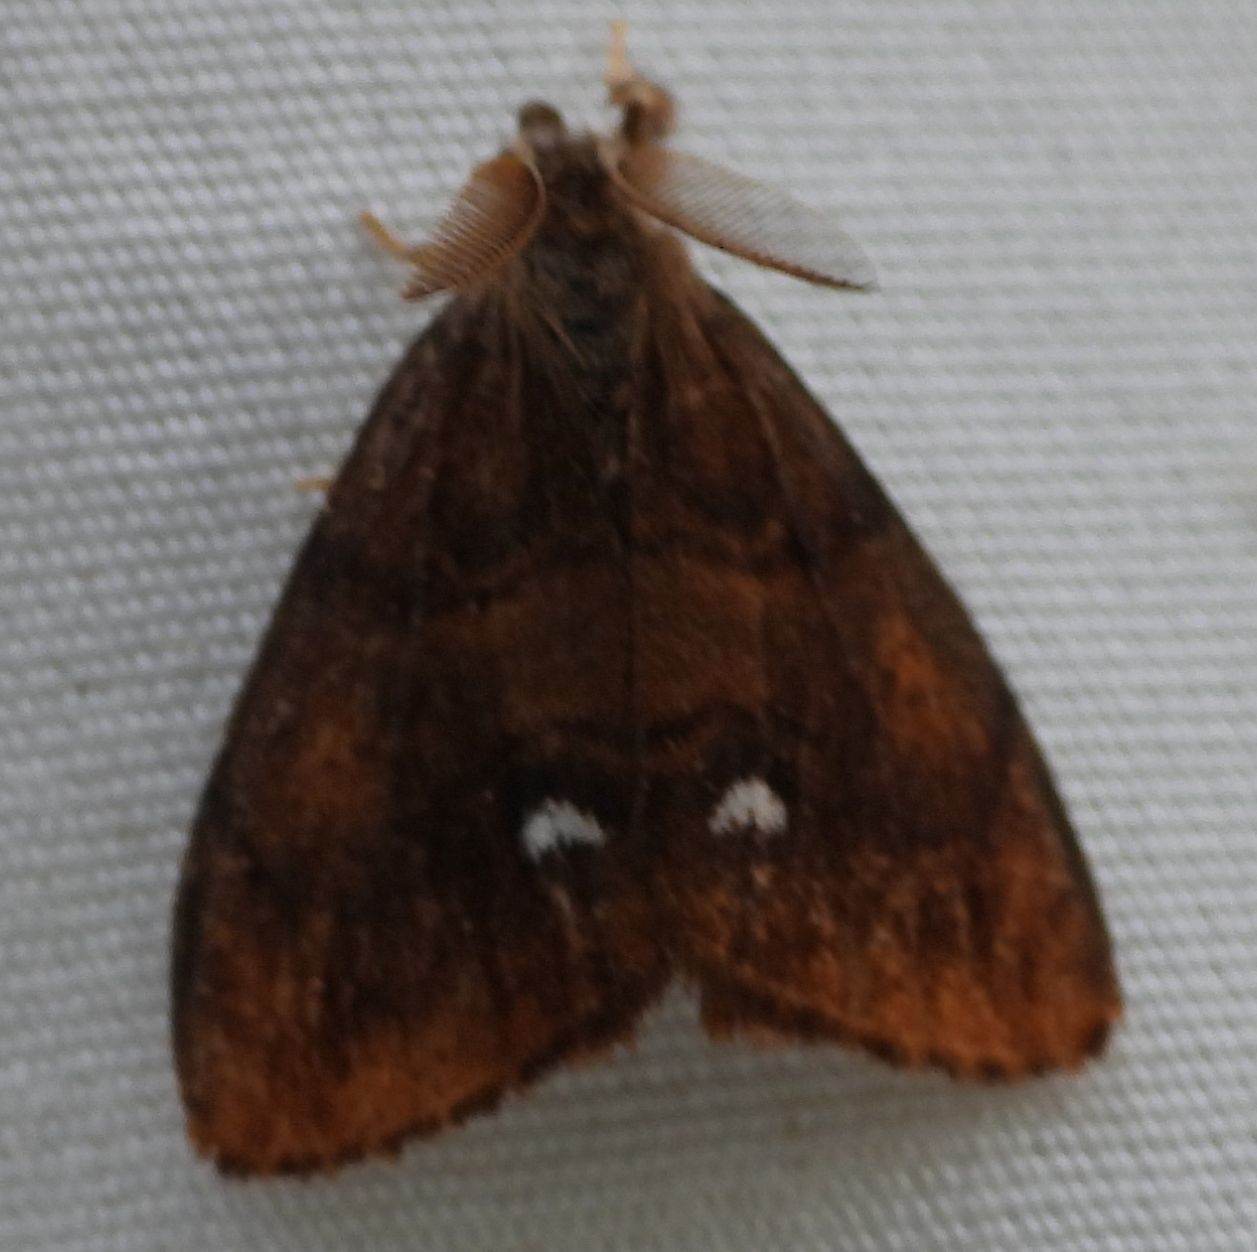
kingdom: Animalia
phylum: Arthropoda
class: Insecta
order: Lepidoptera
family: Erebidae
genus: Orgyia
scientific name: Orgyia antiqua
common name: Vapourer
